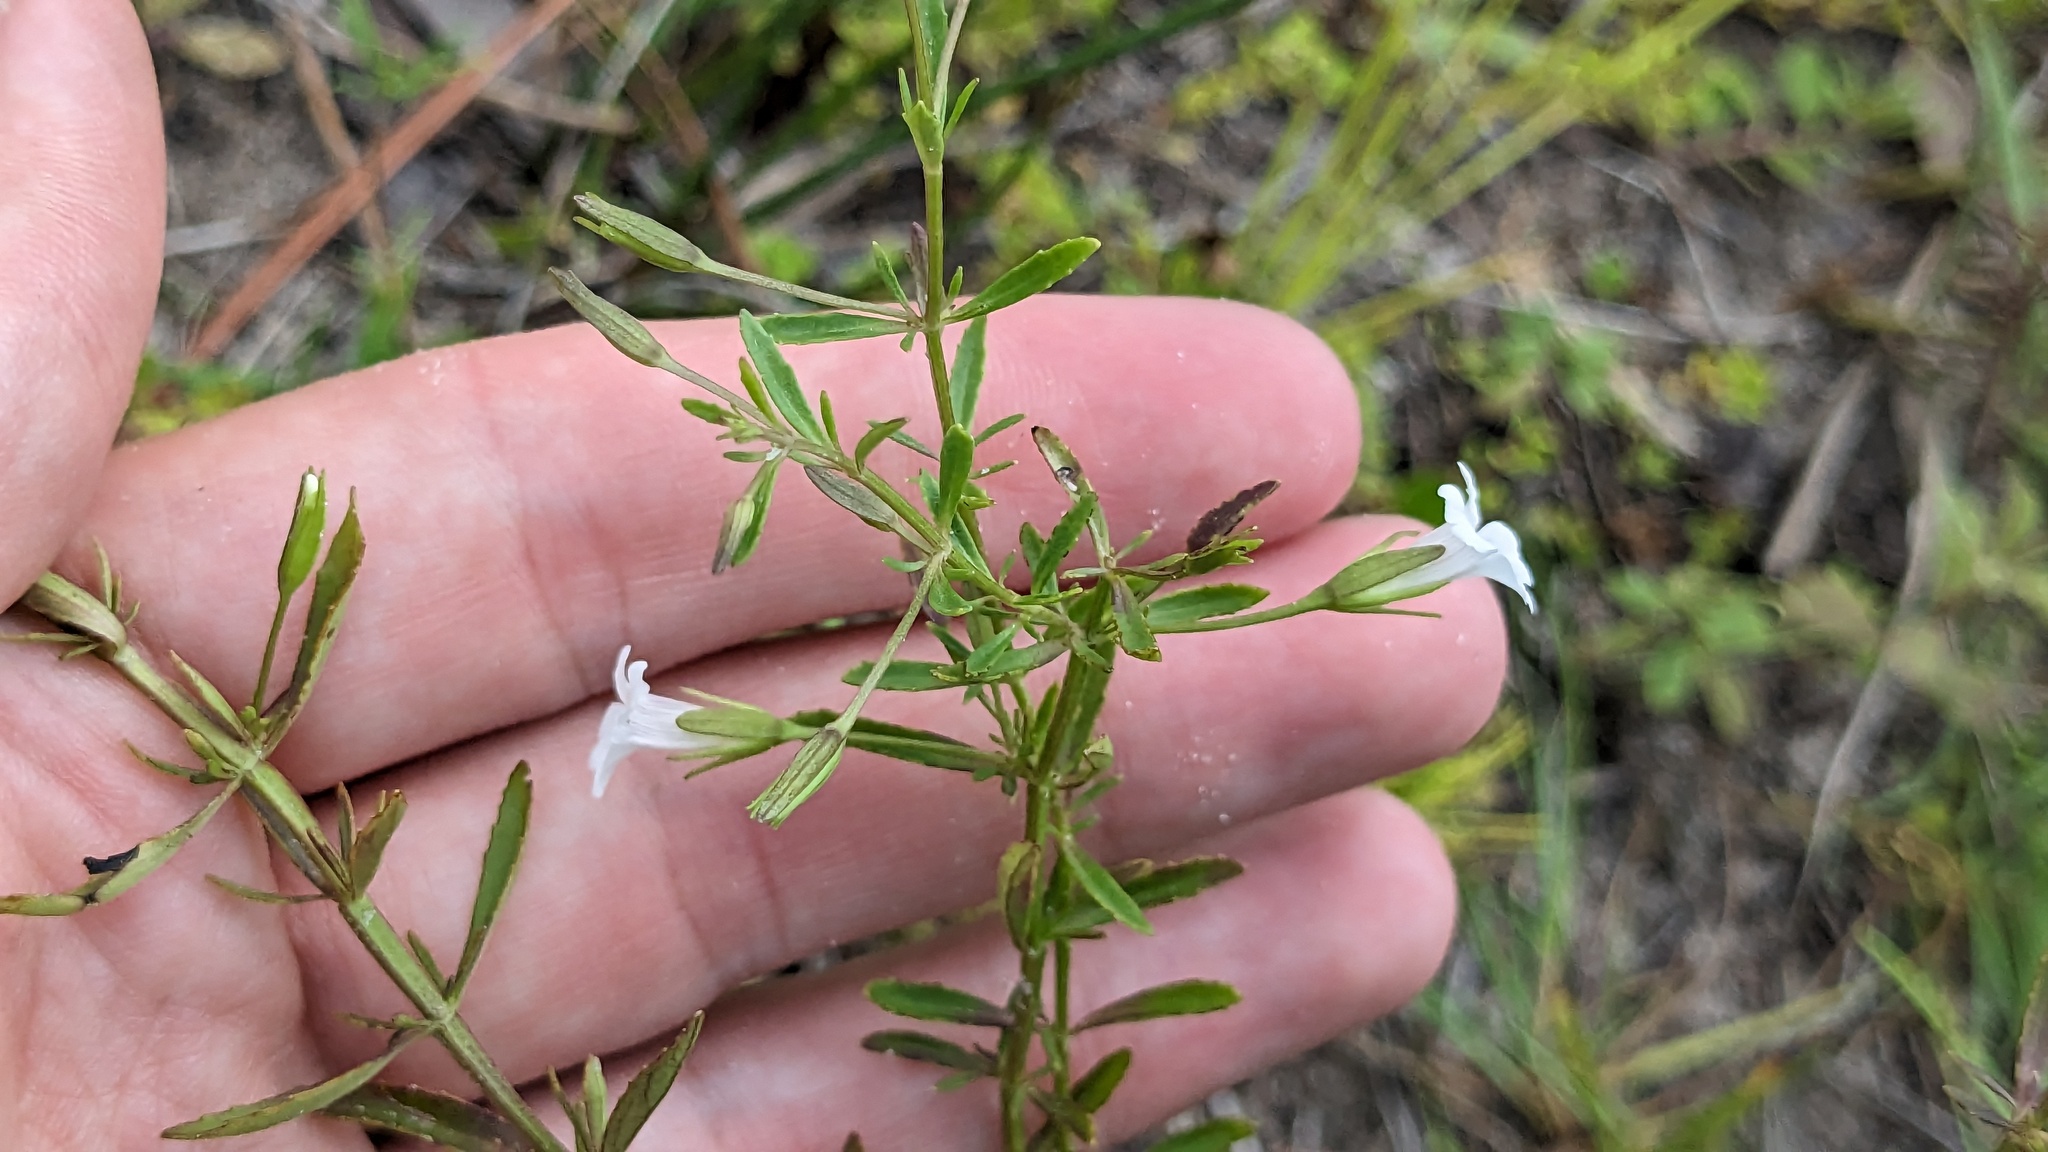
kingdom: Plantae
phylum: Tracheophyta
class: Magnoliopsida
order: Lamiales
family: Plantaginaceae
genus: Mecardonia
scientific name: Mecardonia acuminata
